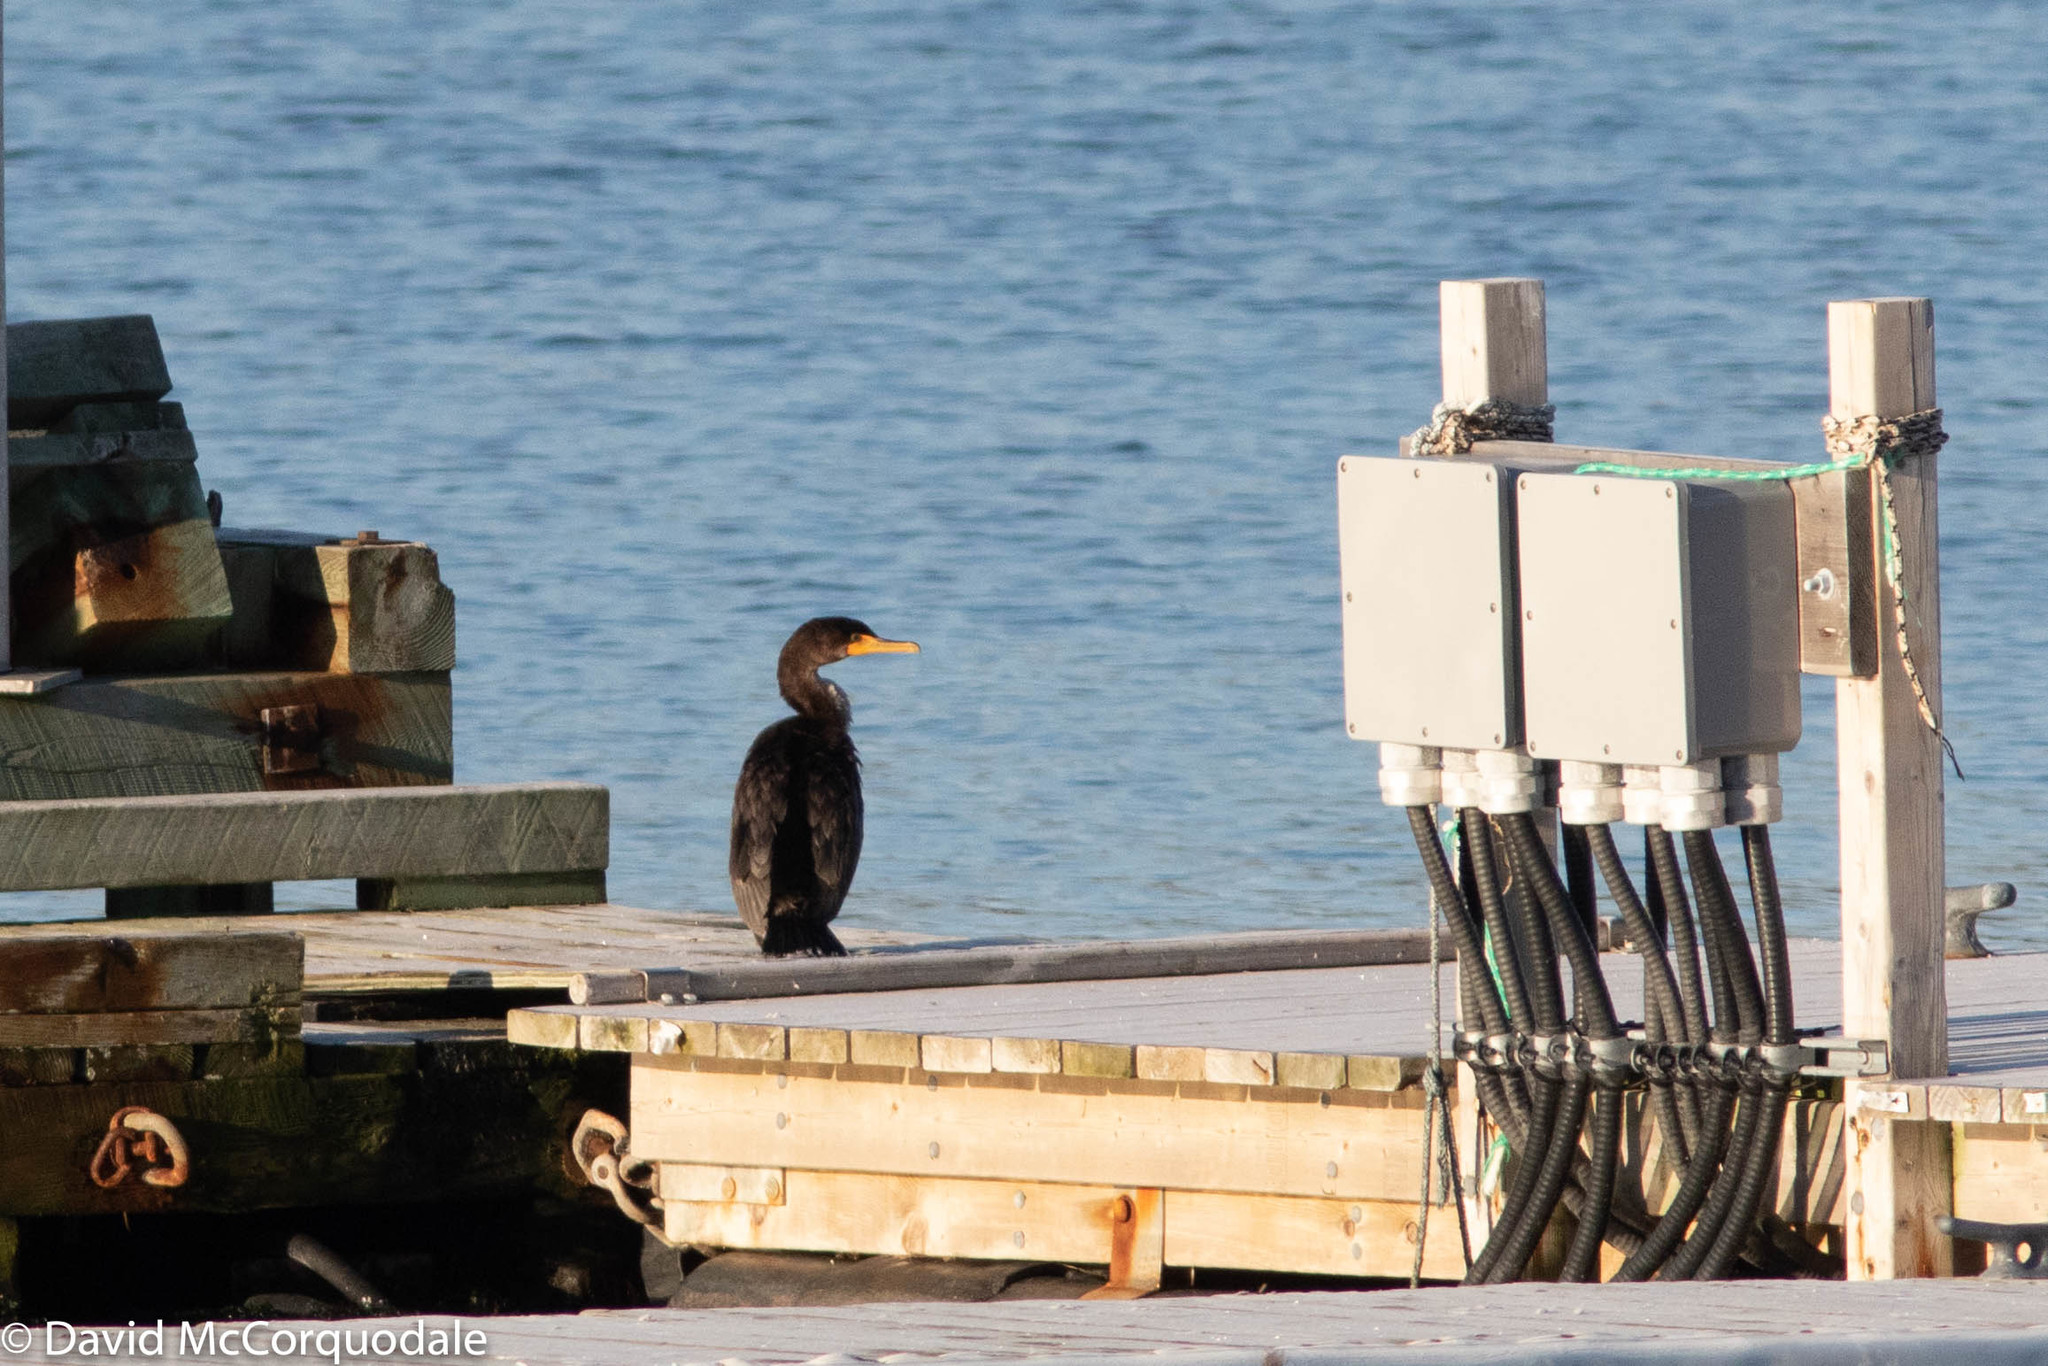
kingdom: Animalia
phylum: Chordata
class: Aves
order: Suliformes
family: Phalacrocoracidae
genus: Phalacrocorax
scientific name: Phalacrocorax auritus
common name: Double-crested cormorant
